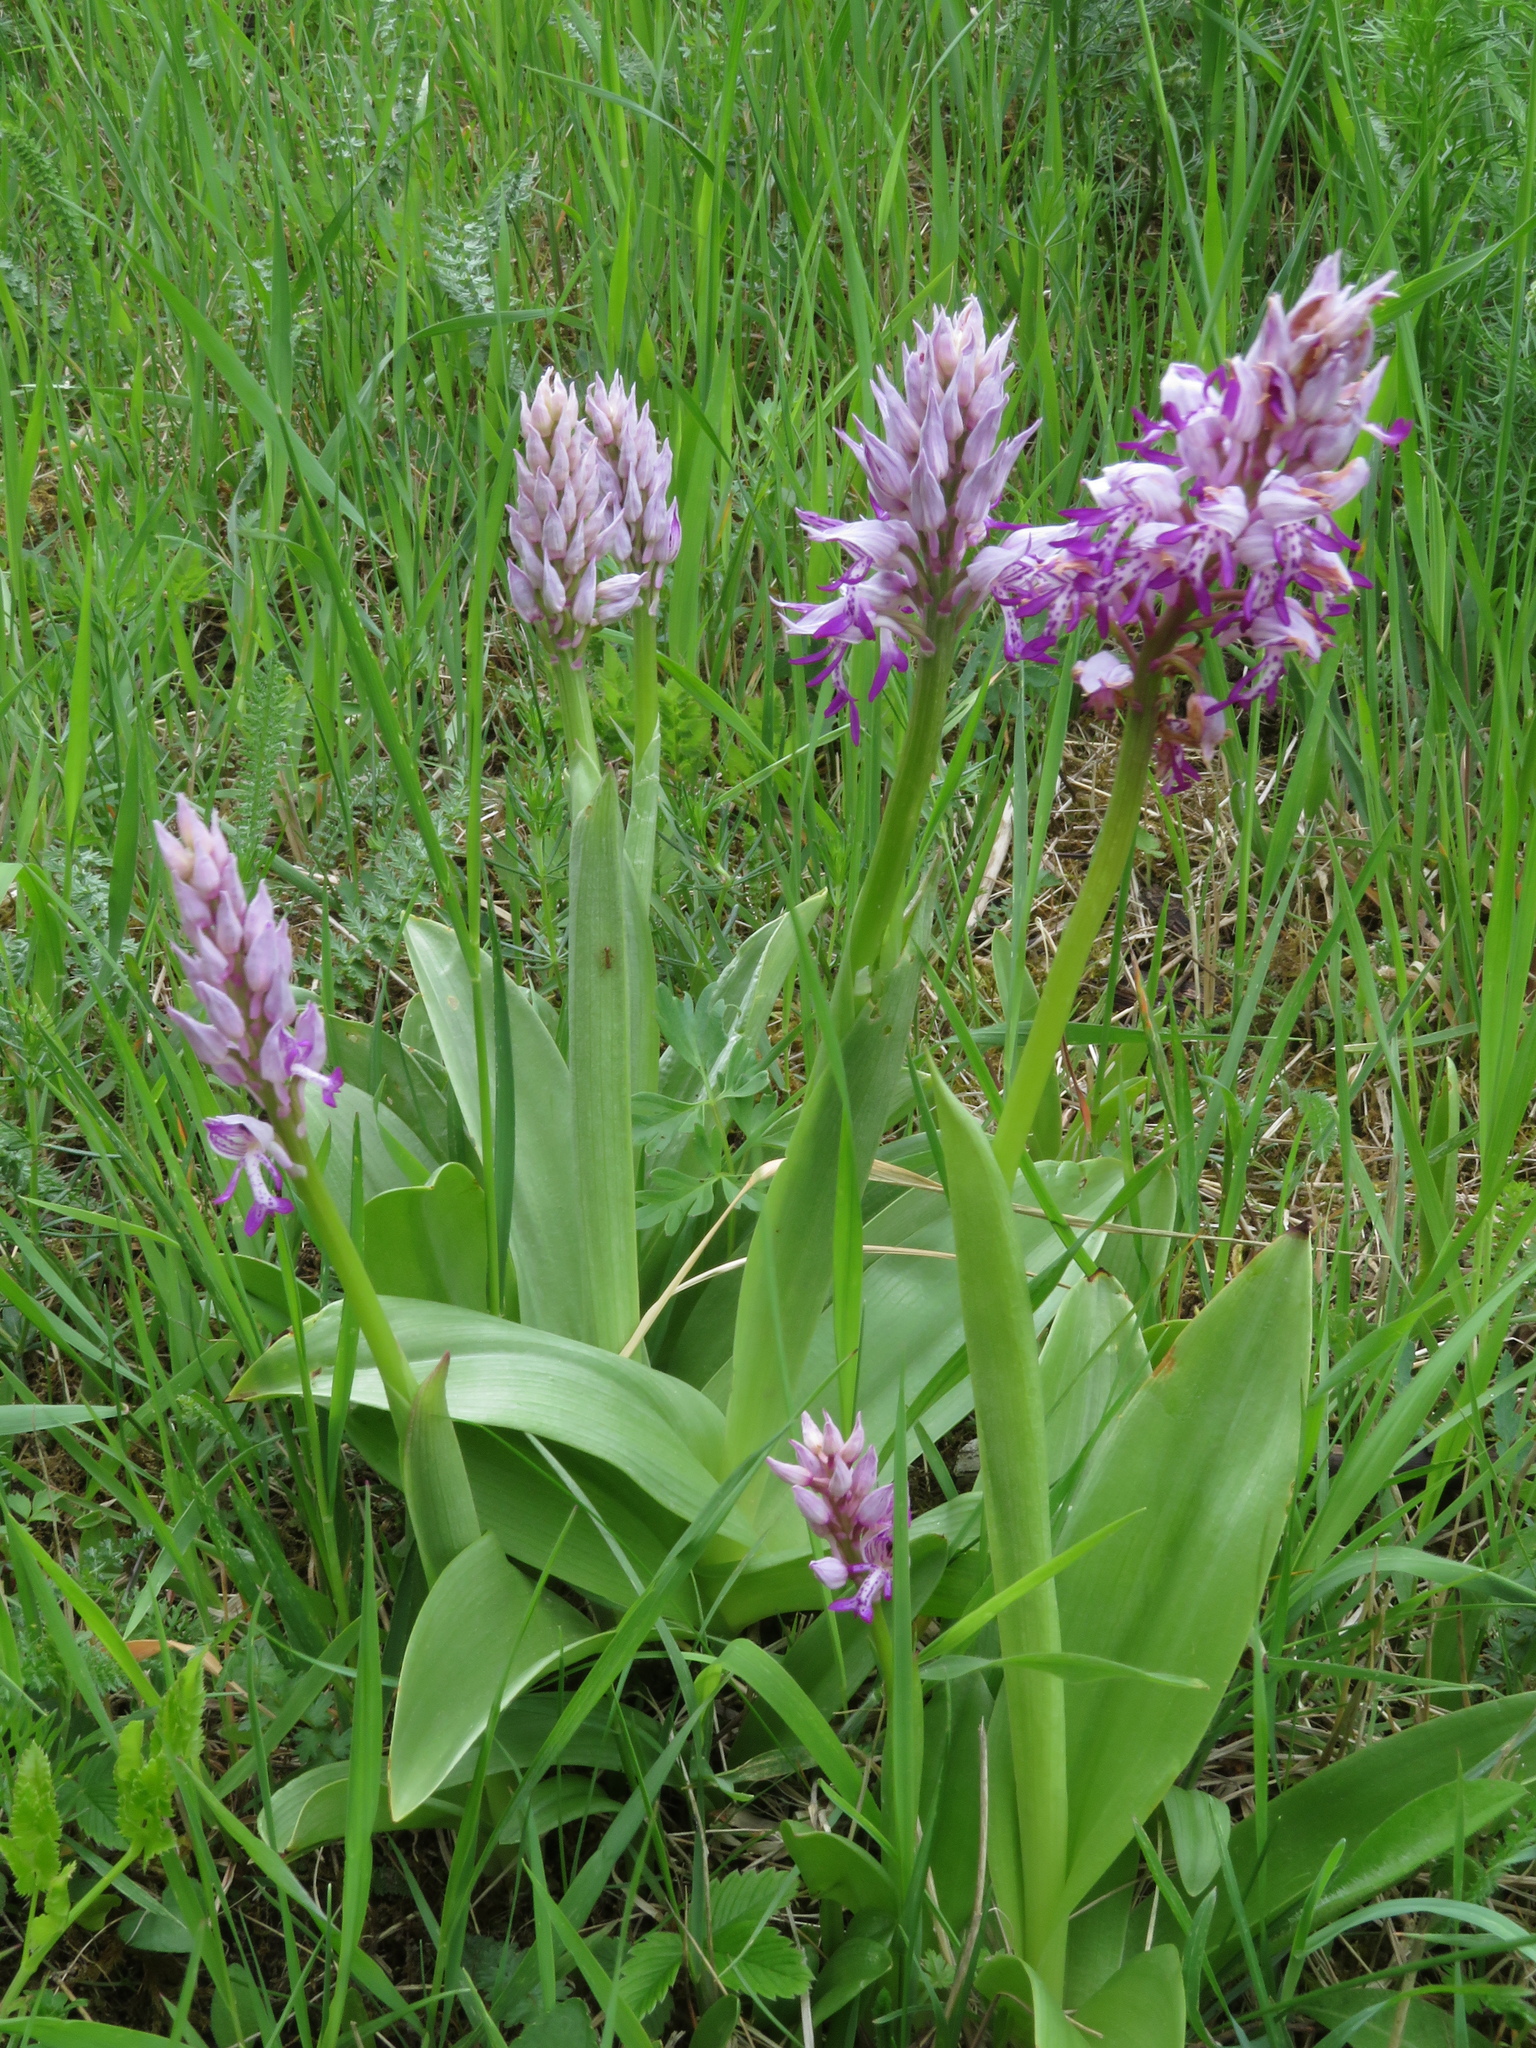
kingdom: Plantae
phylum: Tracheophyta
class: Liliopsida
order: Asparagales
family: Orchidaceae
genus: Orchis
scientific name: Orchis militaris
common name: Military orchid
